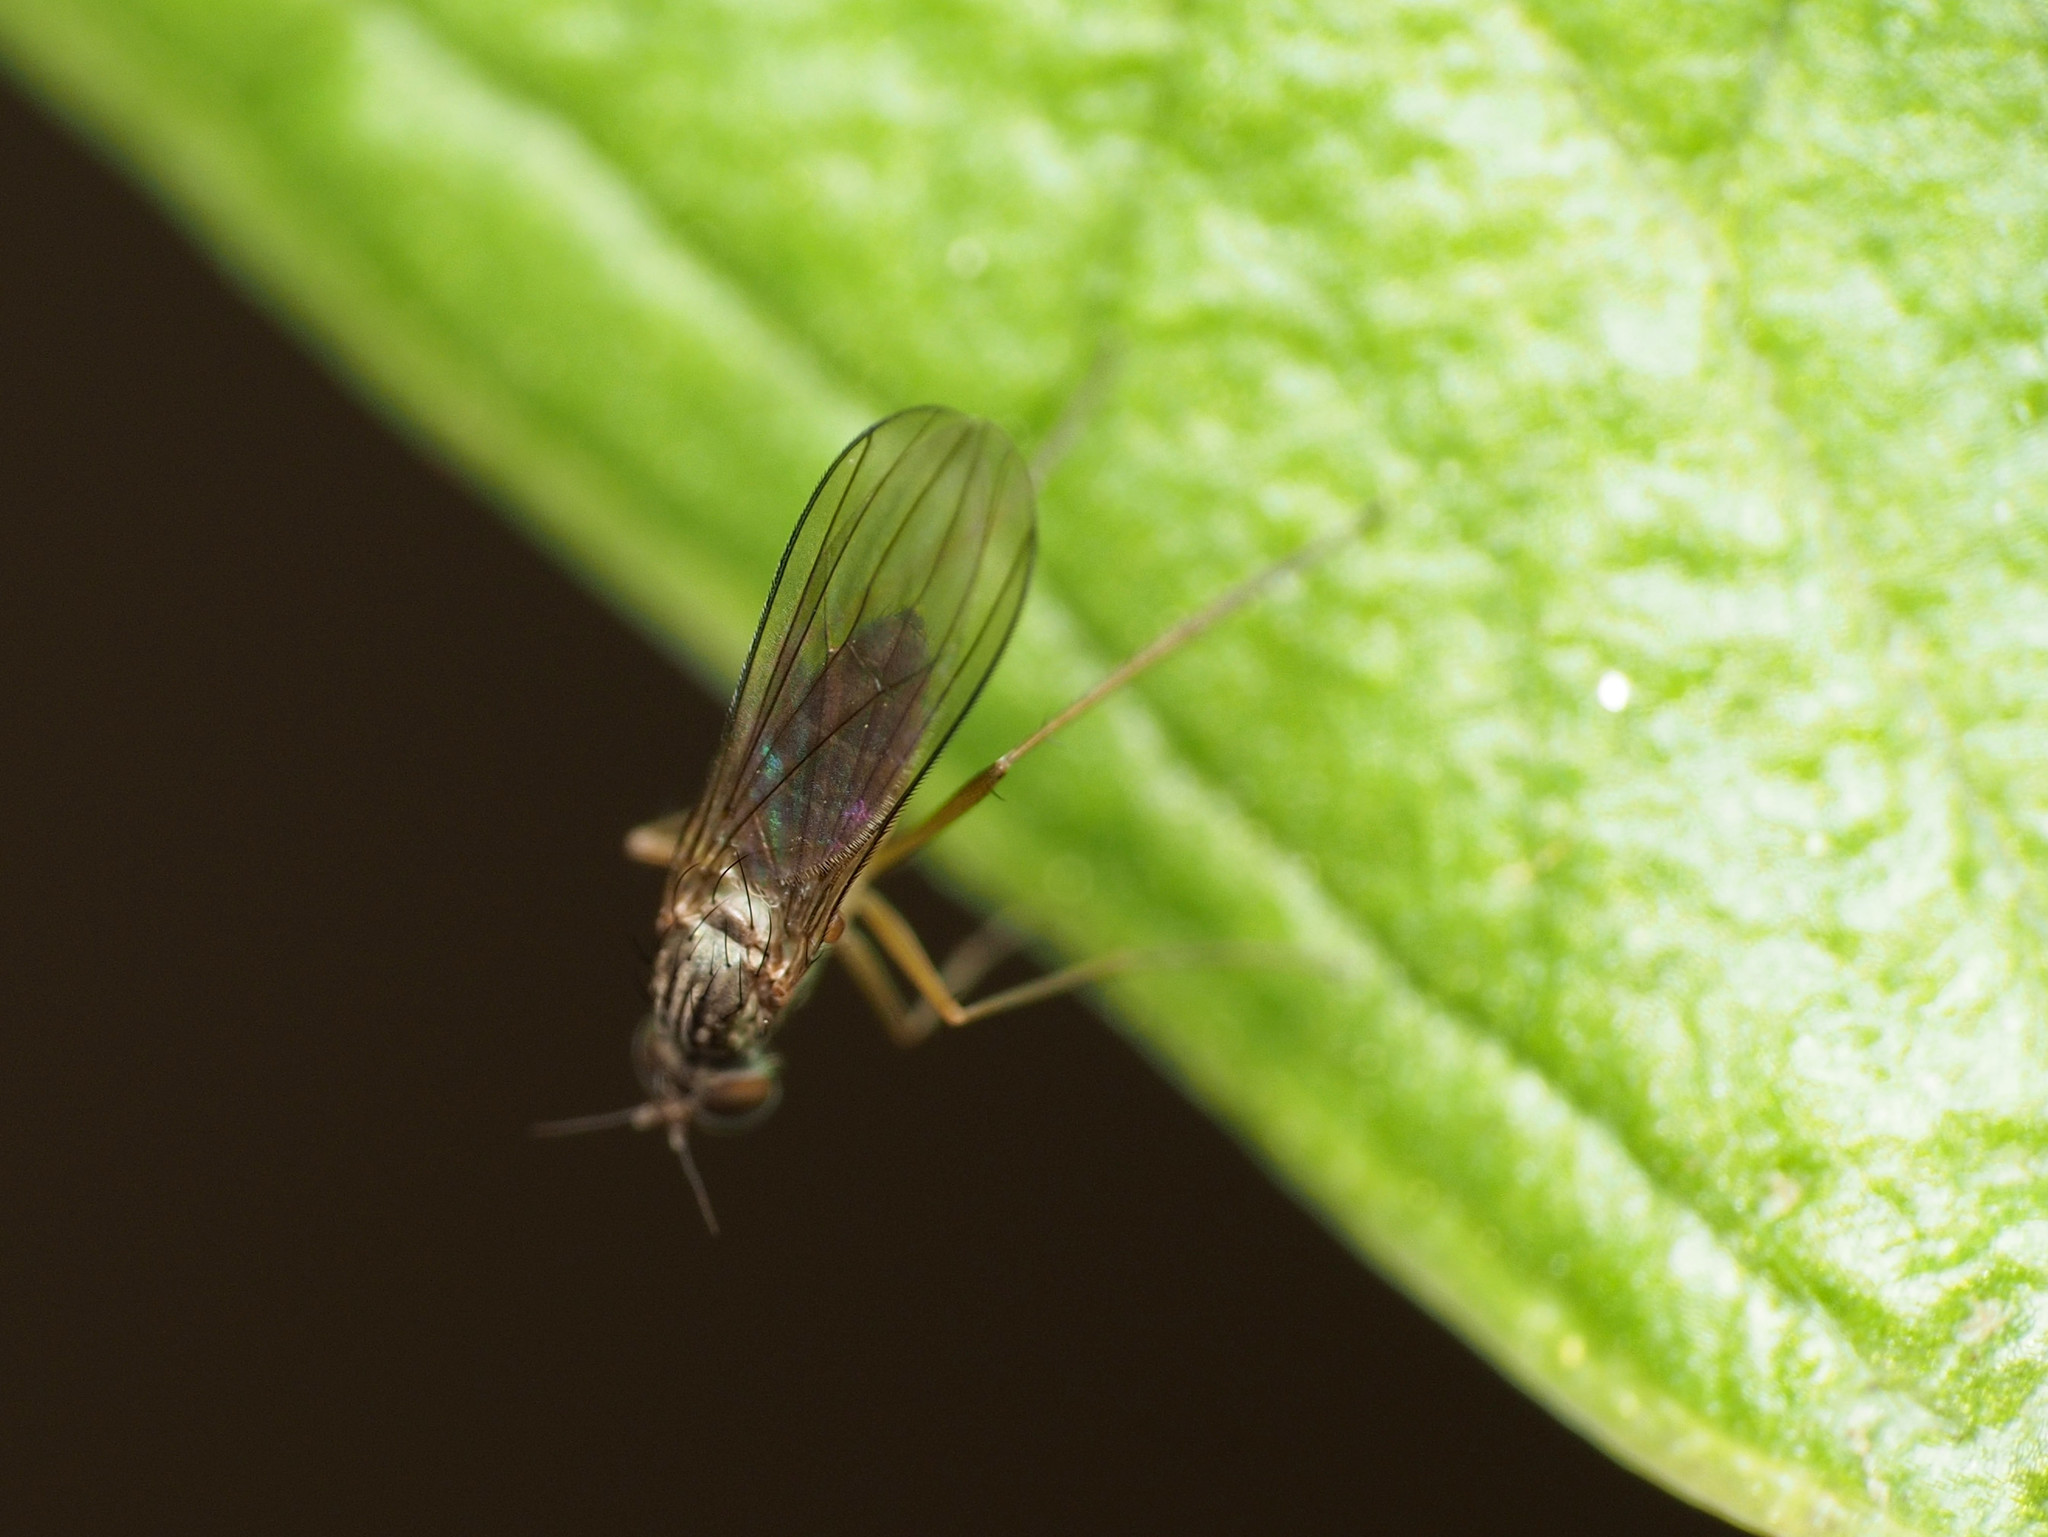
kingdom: Animalia
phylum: Arthropoda
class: Insecta
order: Diptera
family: Dolichopodidae
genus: Sympycnus
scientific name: Sympycnus lineatus
